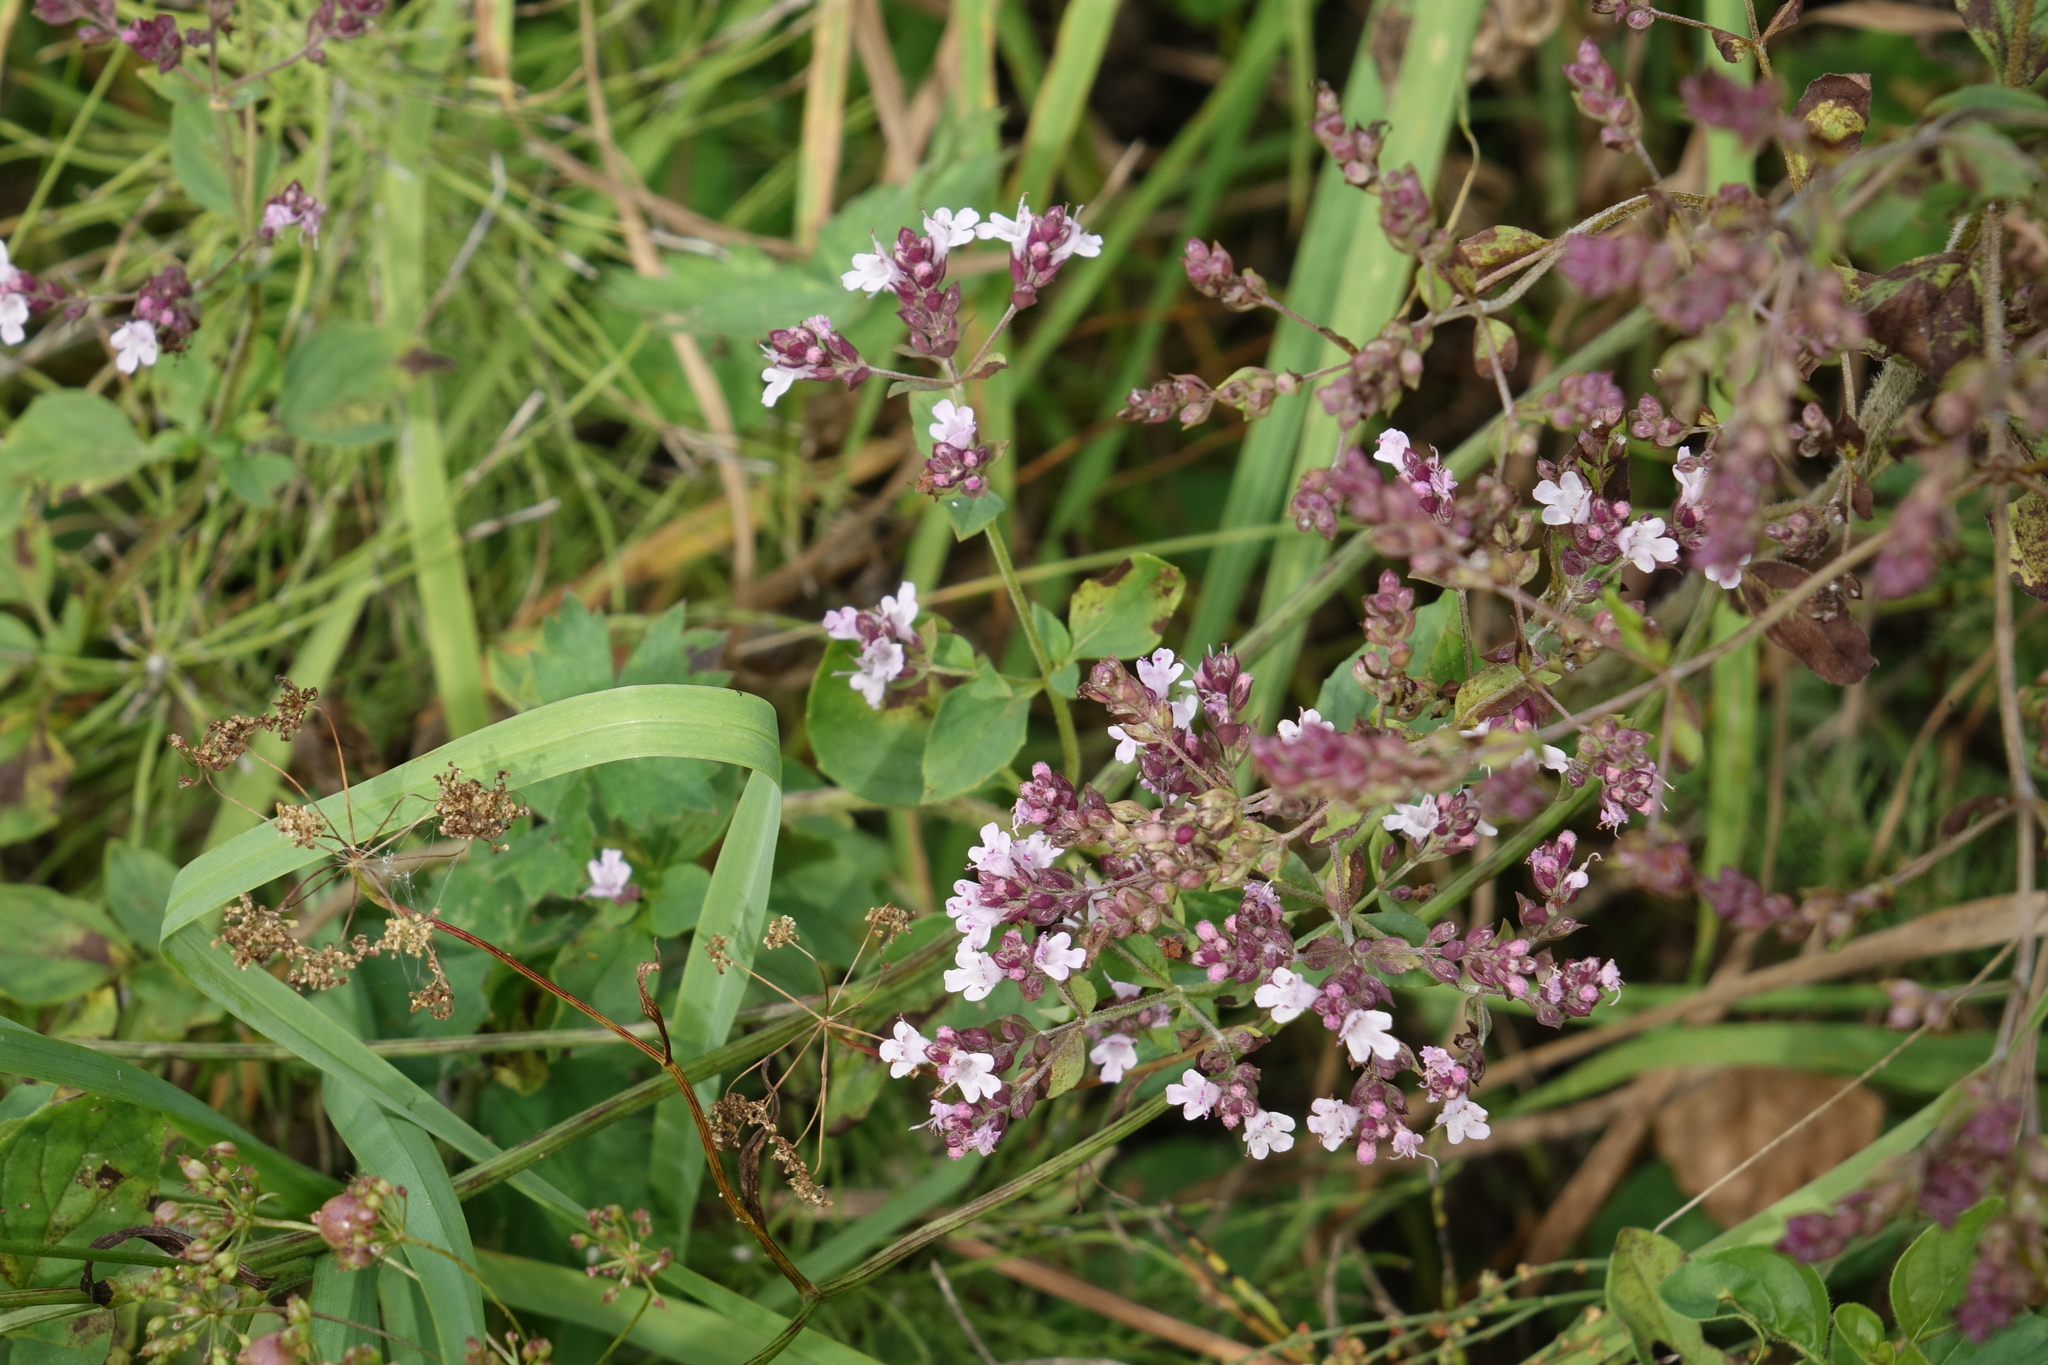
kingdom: Plantae
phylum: Tracheophyta
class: Magnoliopsida
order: Lamiales
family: Lamiaceae
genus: Origanum
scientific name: Origanum vulgare
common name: Wild marjoram
